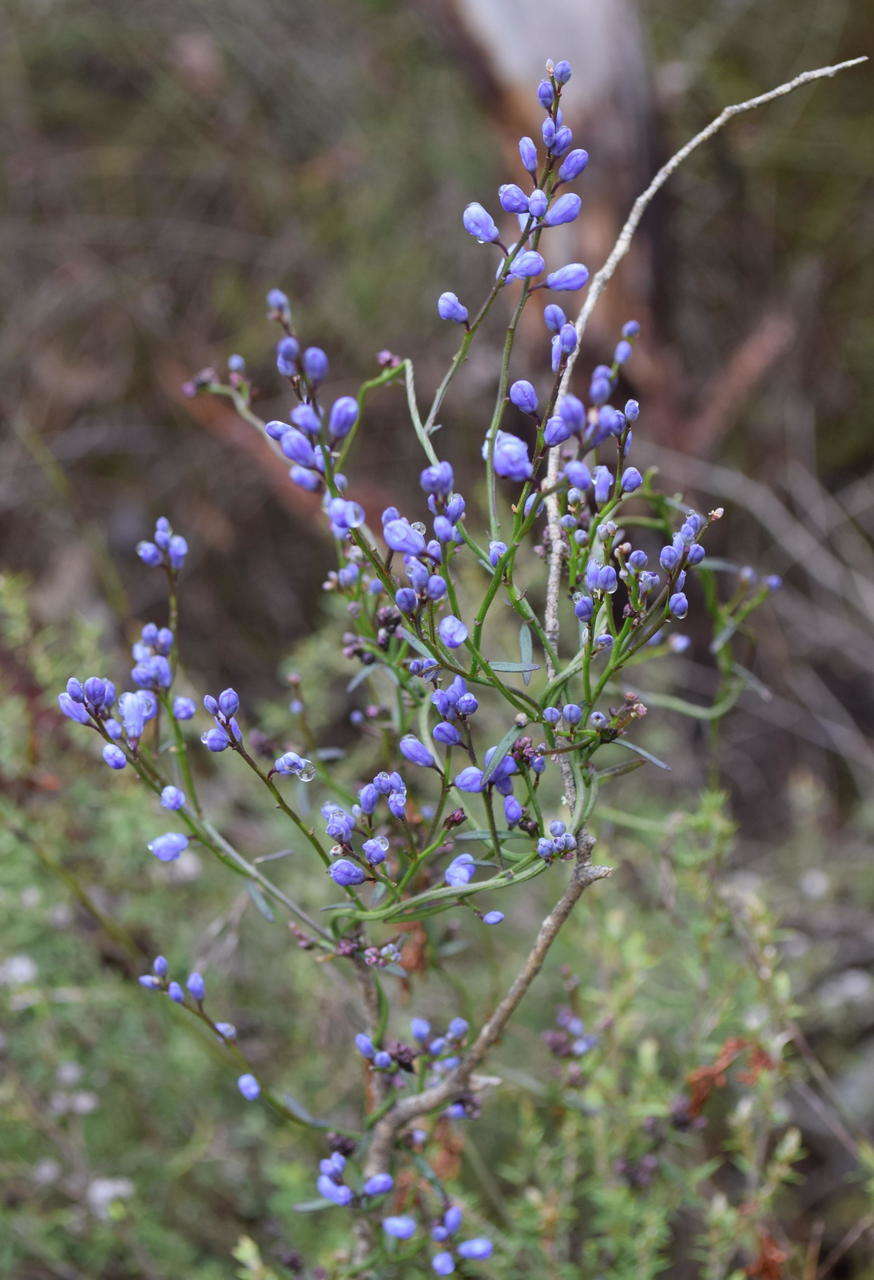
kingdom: Plantae
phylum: Tracheophyta
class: Magnoliopsida
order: Fabales
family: Polygalaceae
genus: Comesperma
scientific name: Comesperma volubile
